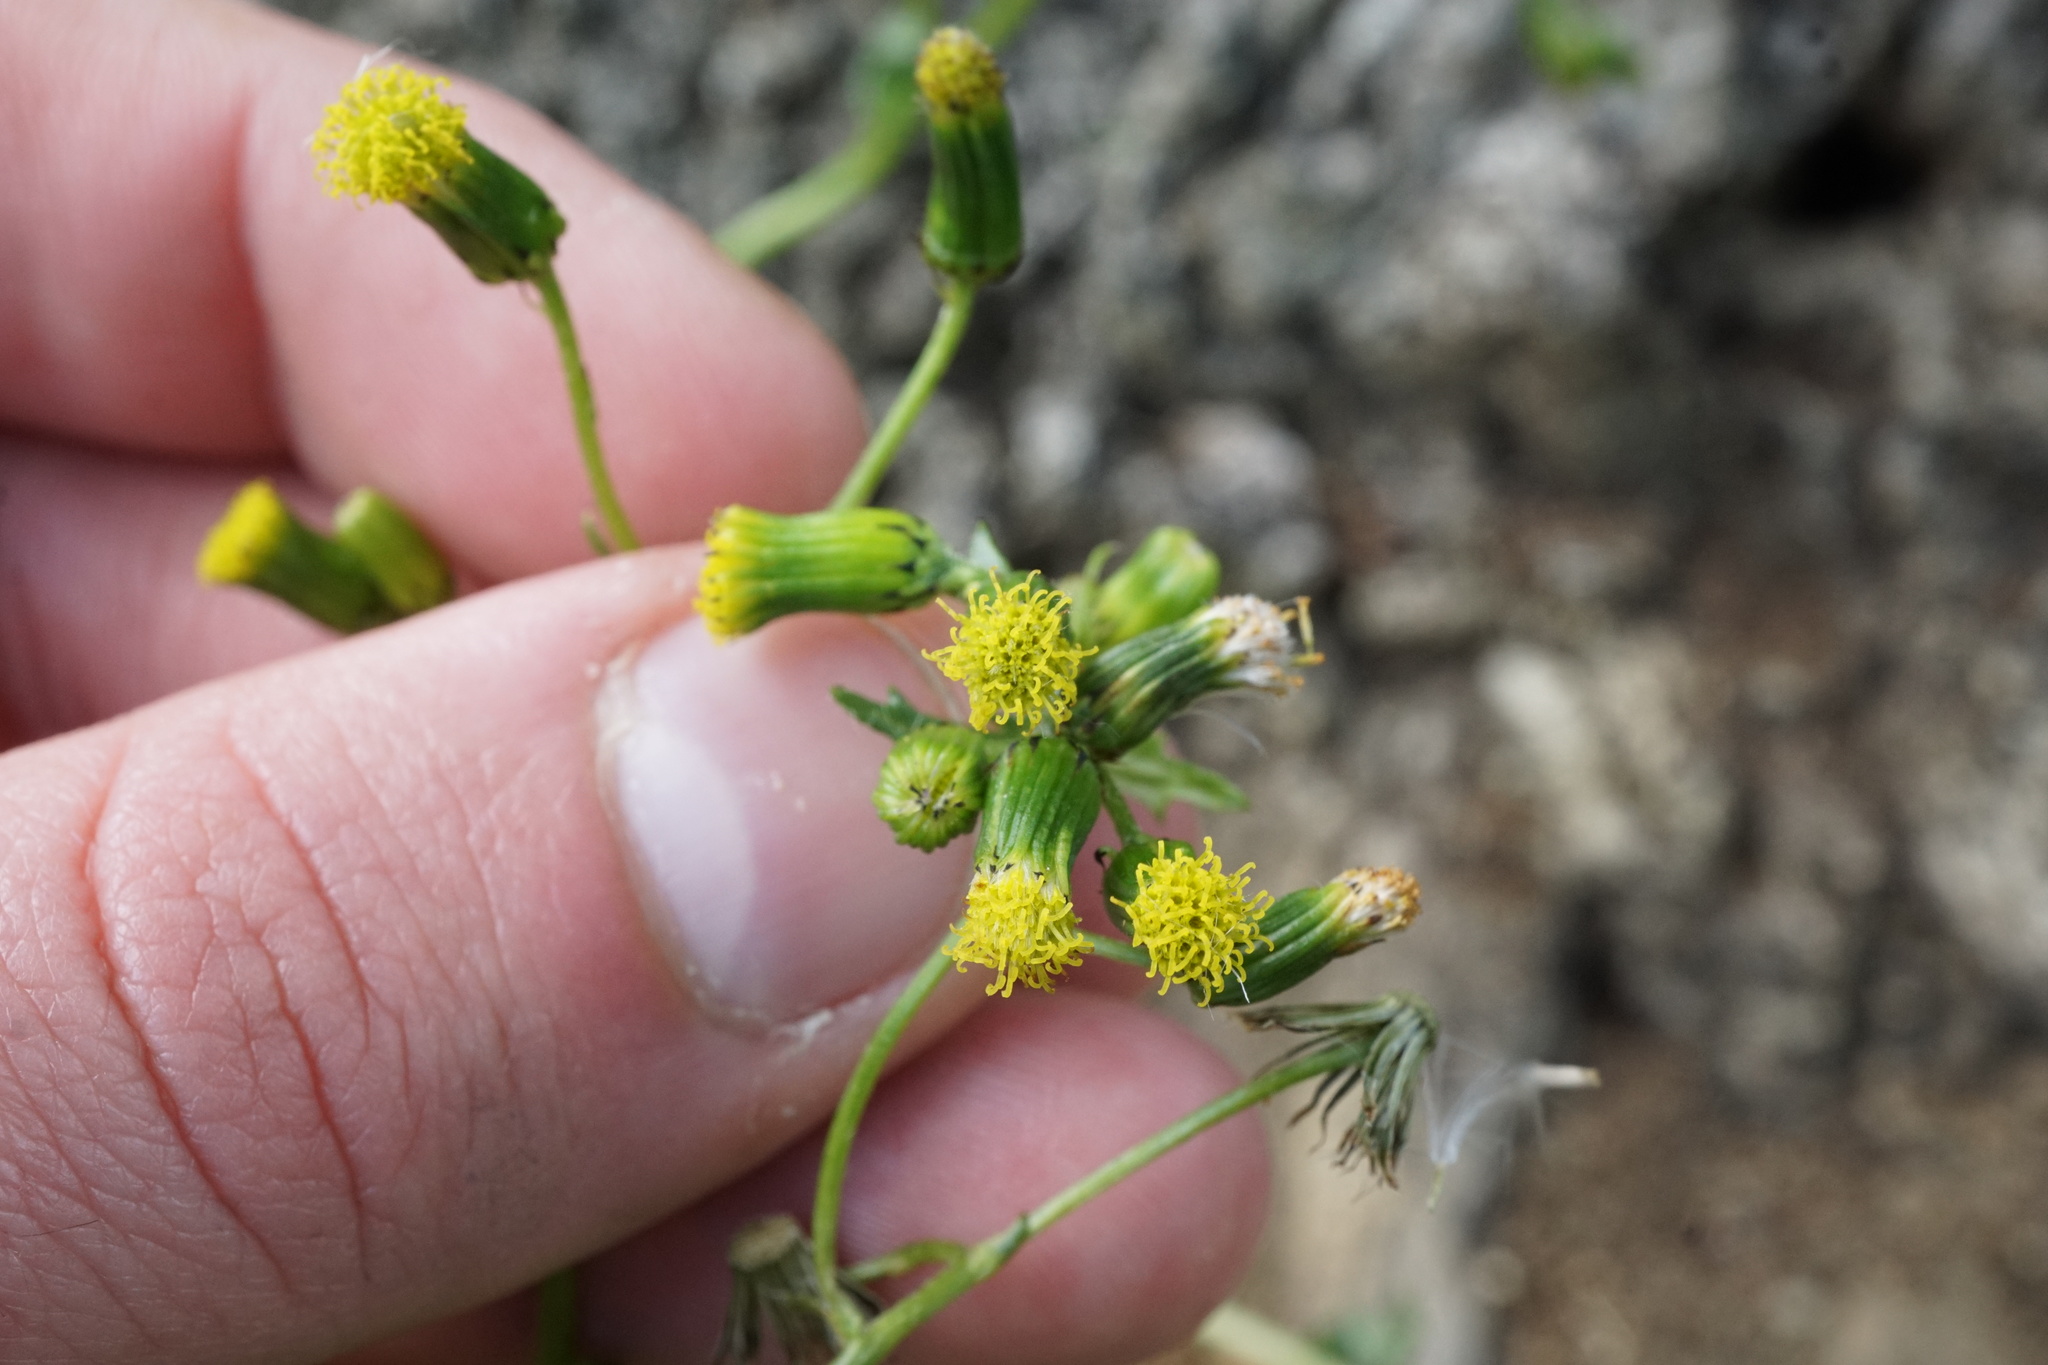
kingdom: Plantae
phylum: Tracheophyta
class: Magnoliopsida
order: Asterales
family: Asteraceae
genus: Senecio
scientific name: Senecio vulgaris
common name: Old-man-in-the-spring
